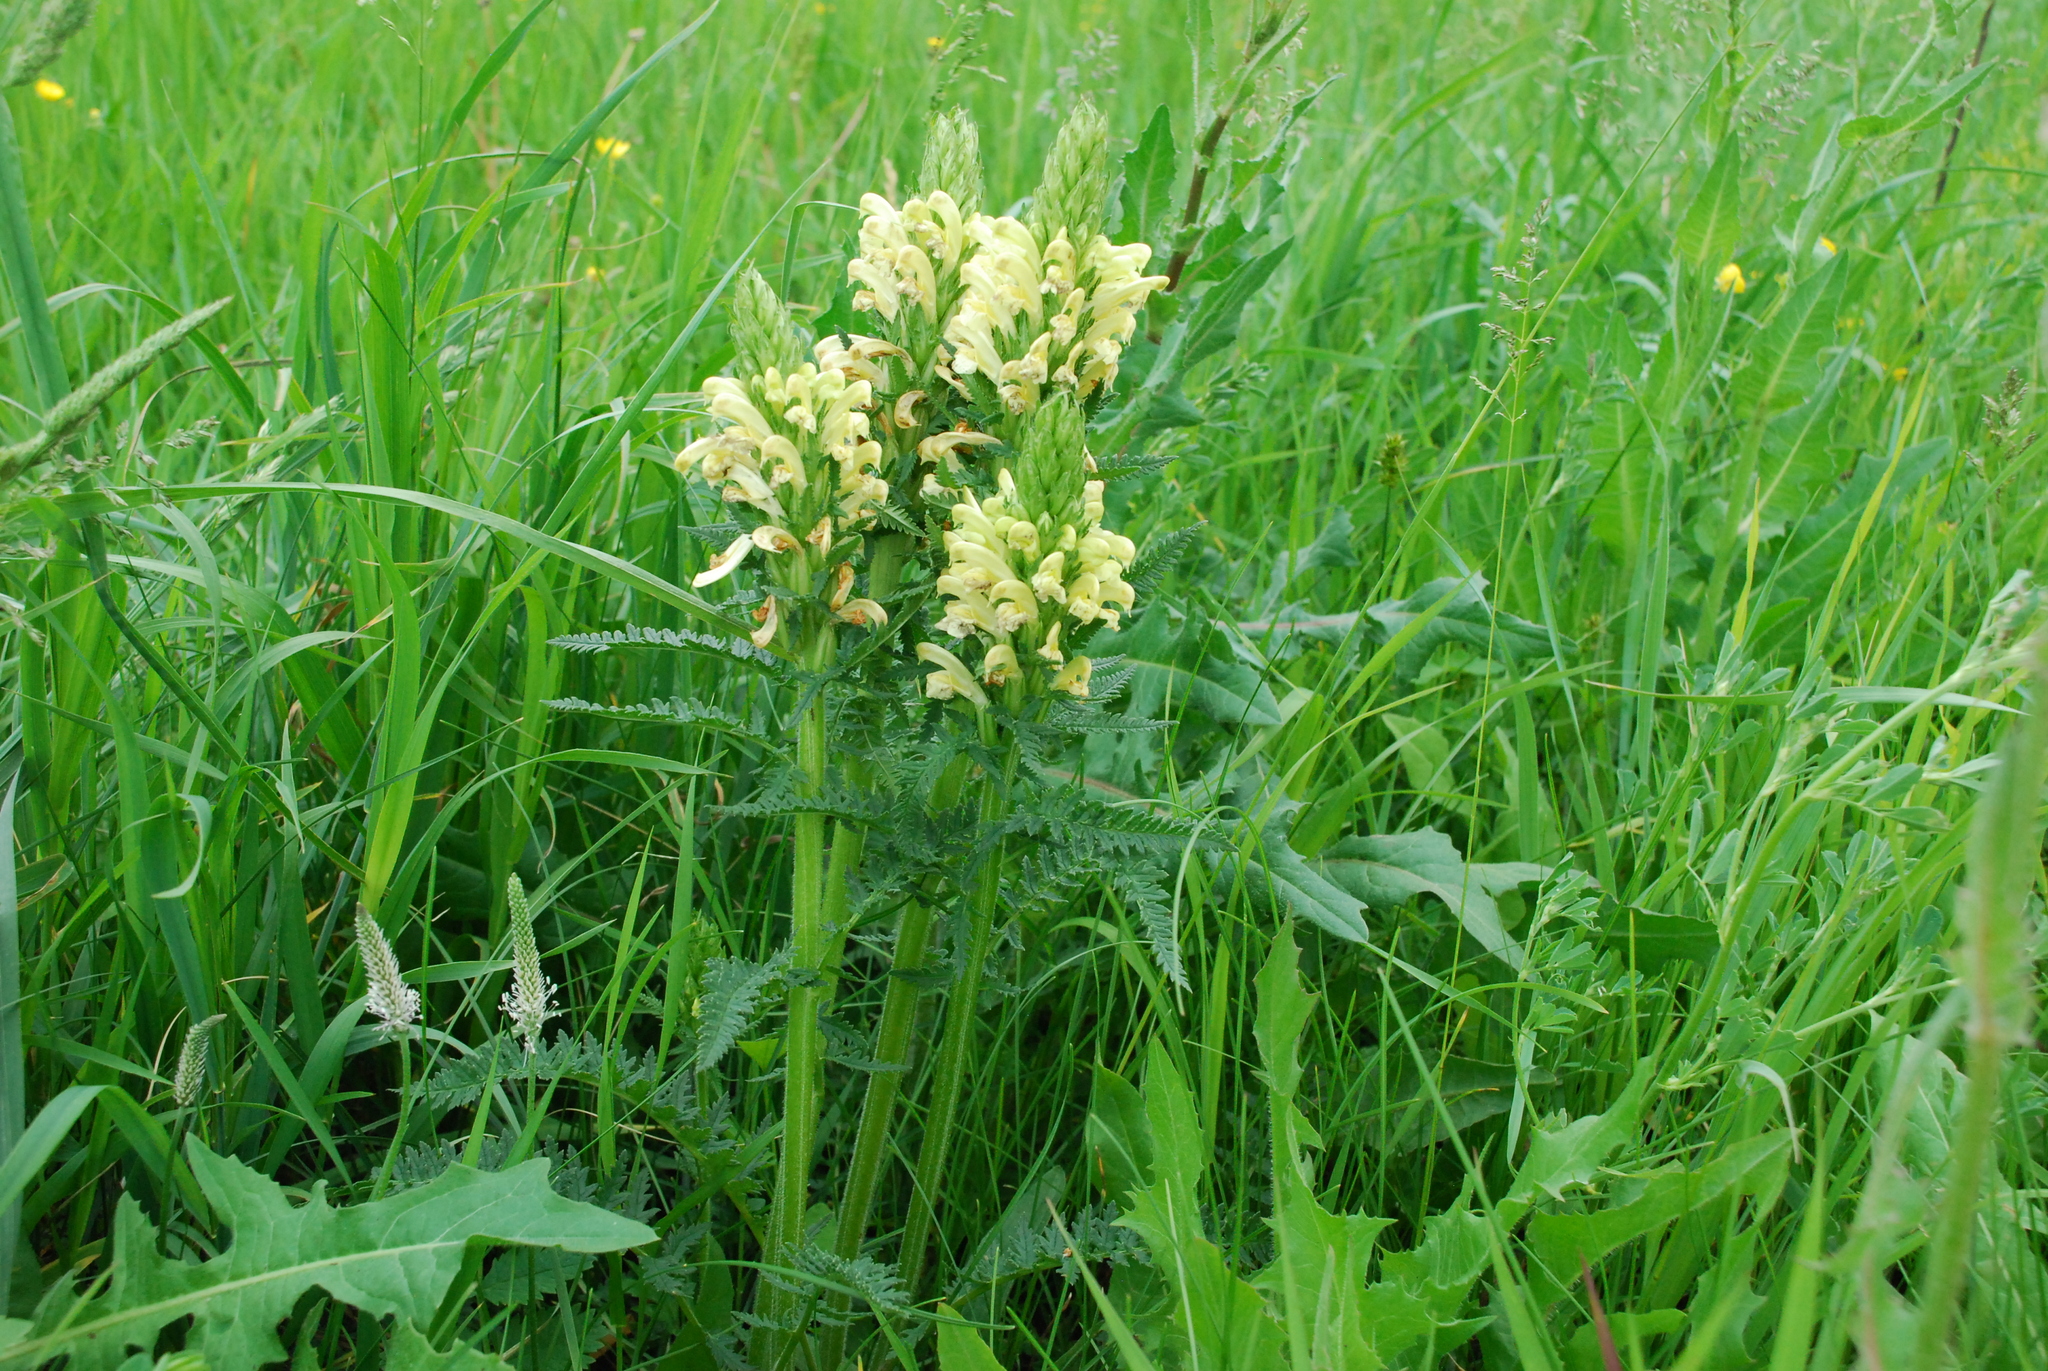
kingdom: Plantae
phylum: Tracheophyta
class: Magnoliopsida
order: Lamiales
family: Orobanchaceae
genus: Pedicularis
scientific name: Pedicularis kaufmannii
